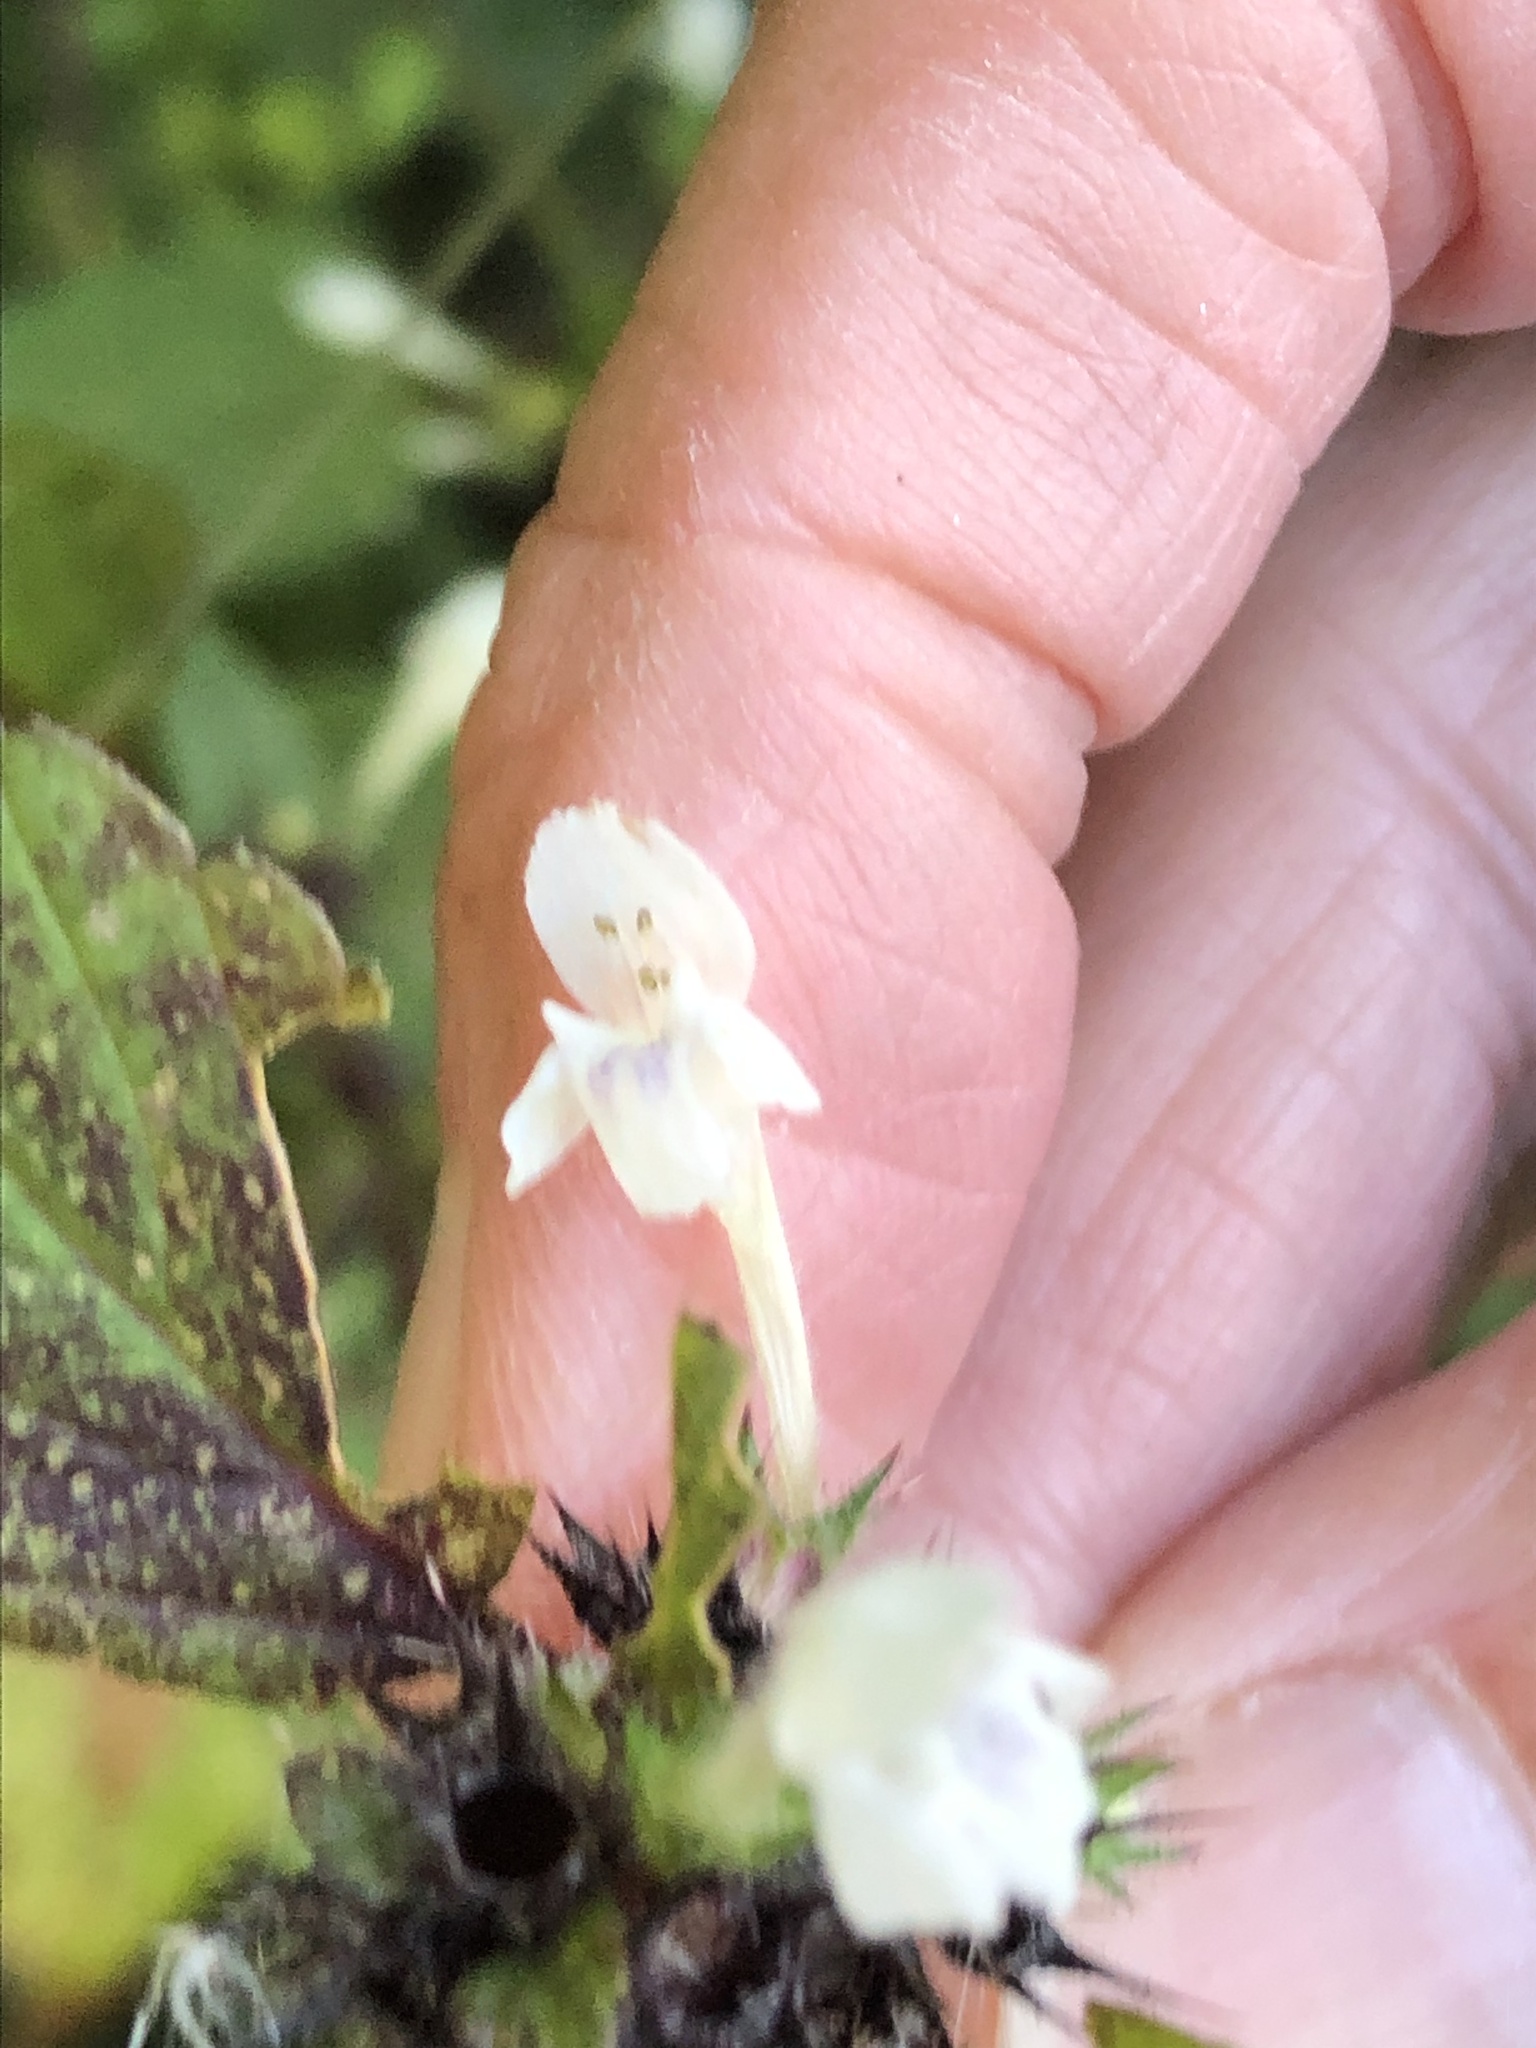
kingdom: Plantae
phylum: Tracheophyta
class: Magnoliopsida
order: Lamiales
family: Lamiaceae
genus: Galeopsis
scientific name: Galeopsis tetrahit
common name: Common hemp-nettle
